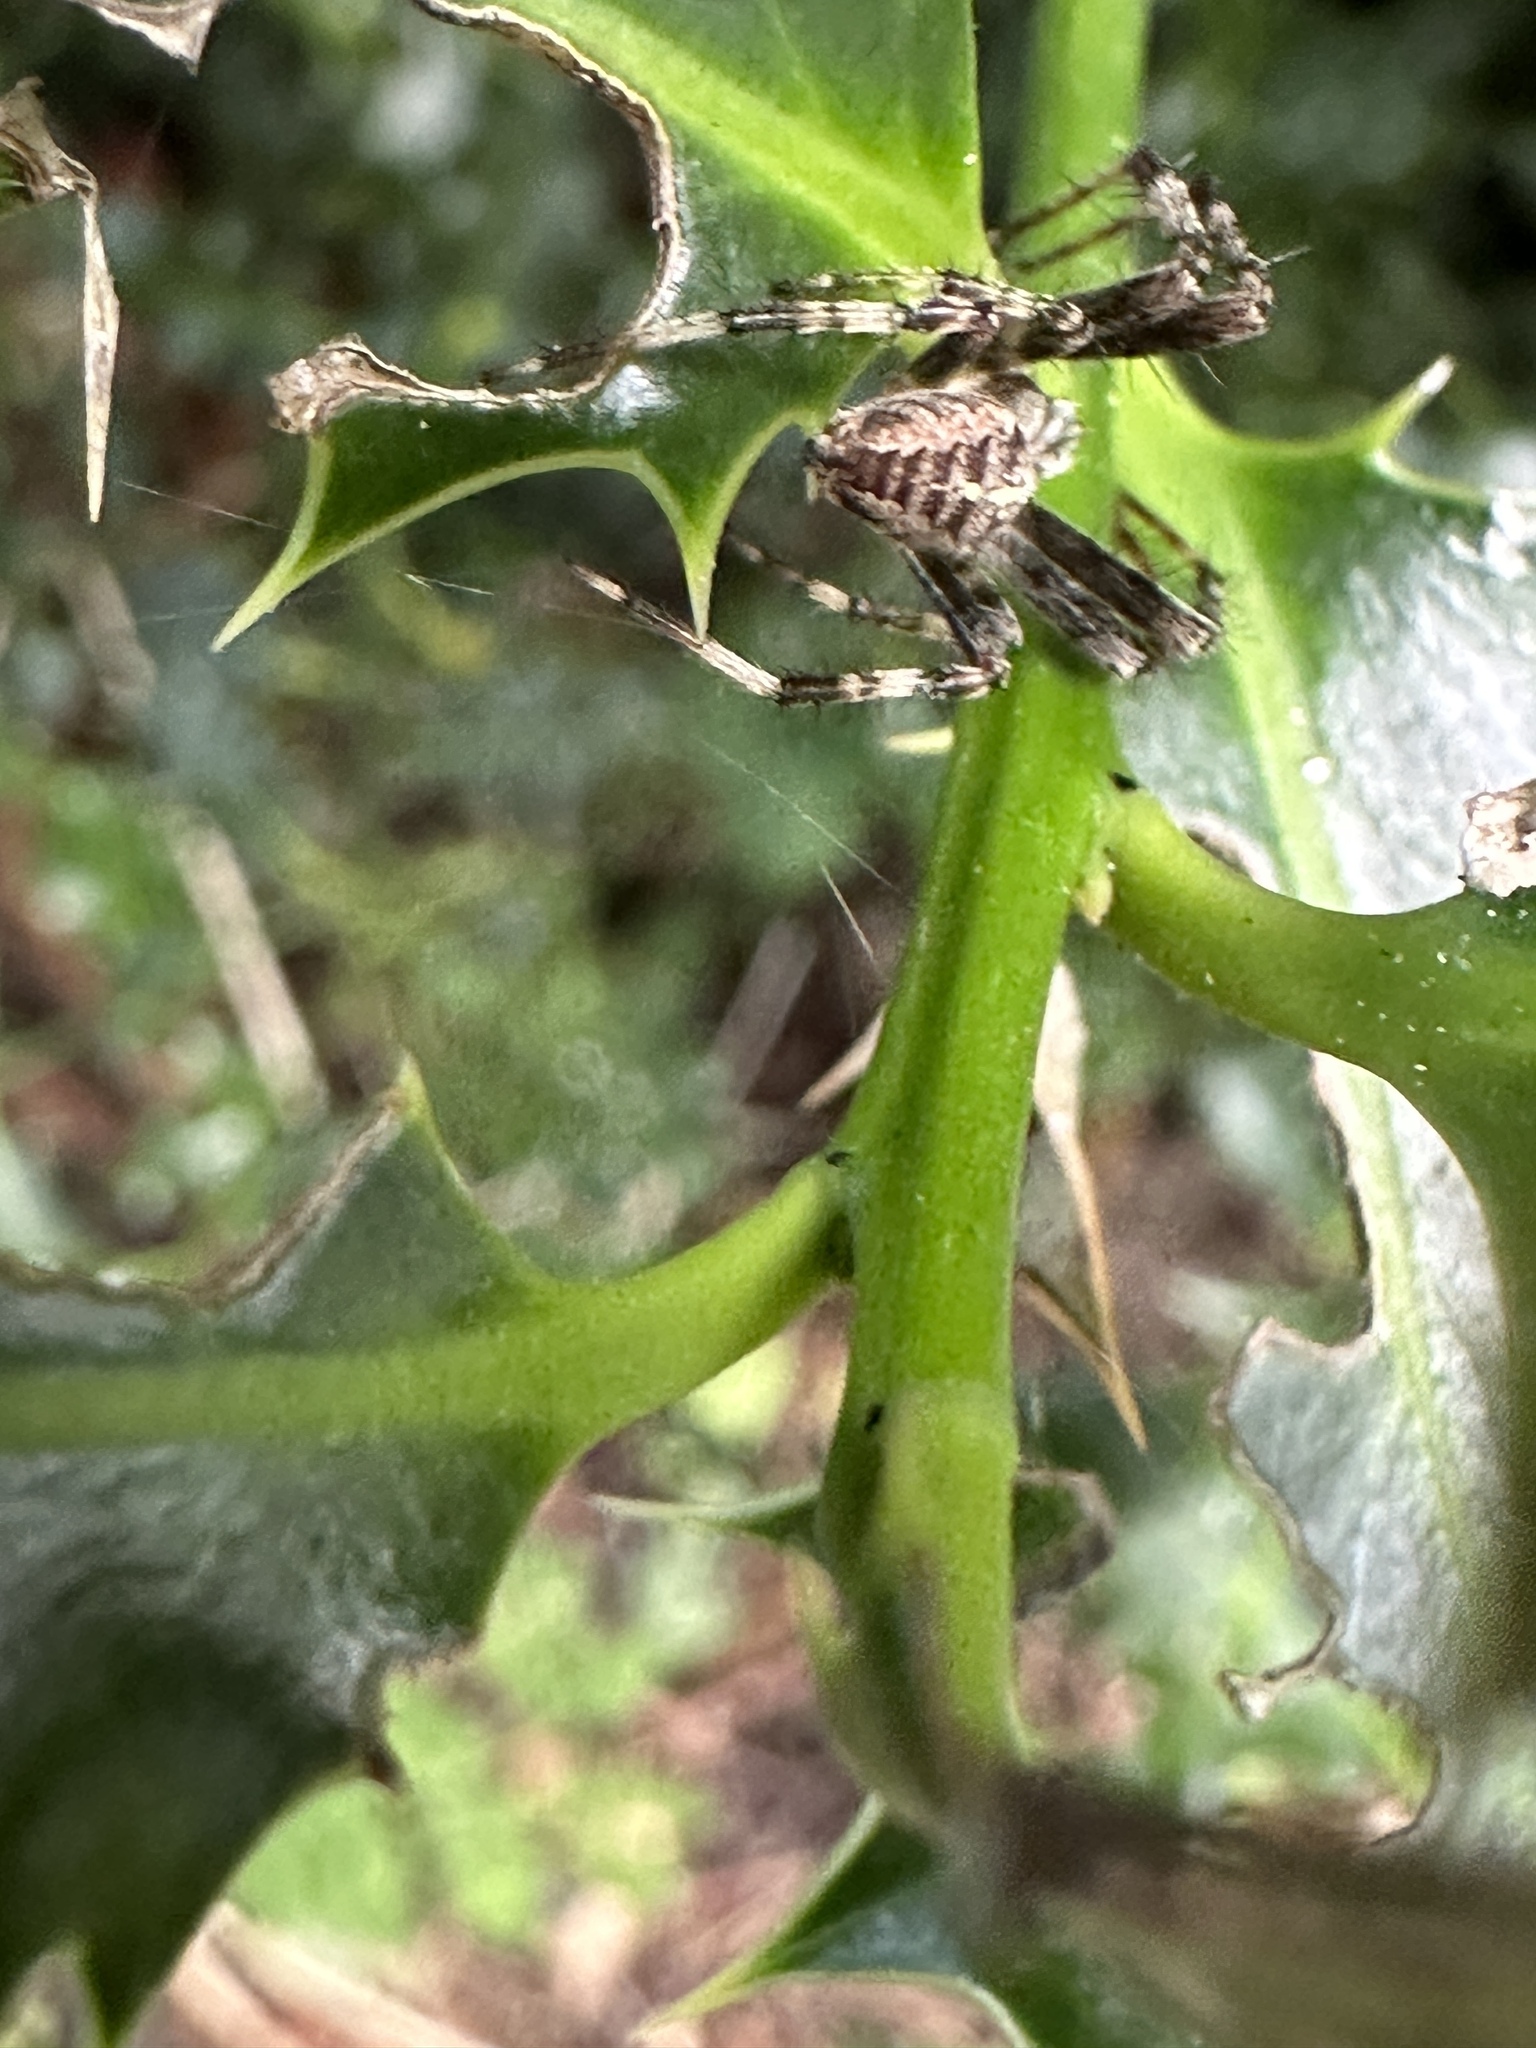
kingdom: Animalia
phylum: Arthropoda
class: Arachnida
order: Araneae
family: Araneidae
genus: Araneus
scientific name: Araneus diadematus
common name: Cross orbweaver
